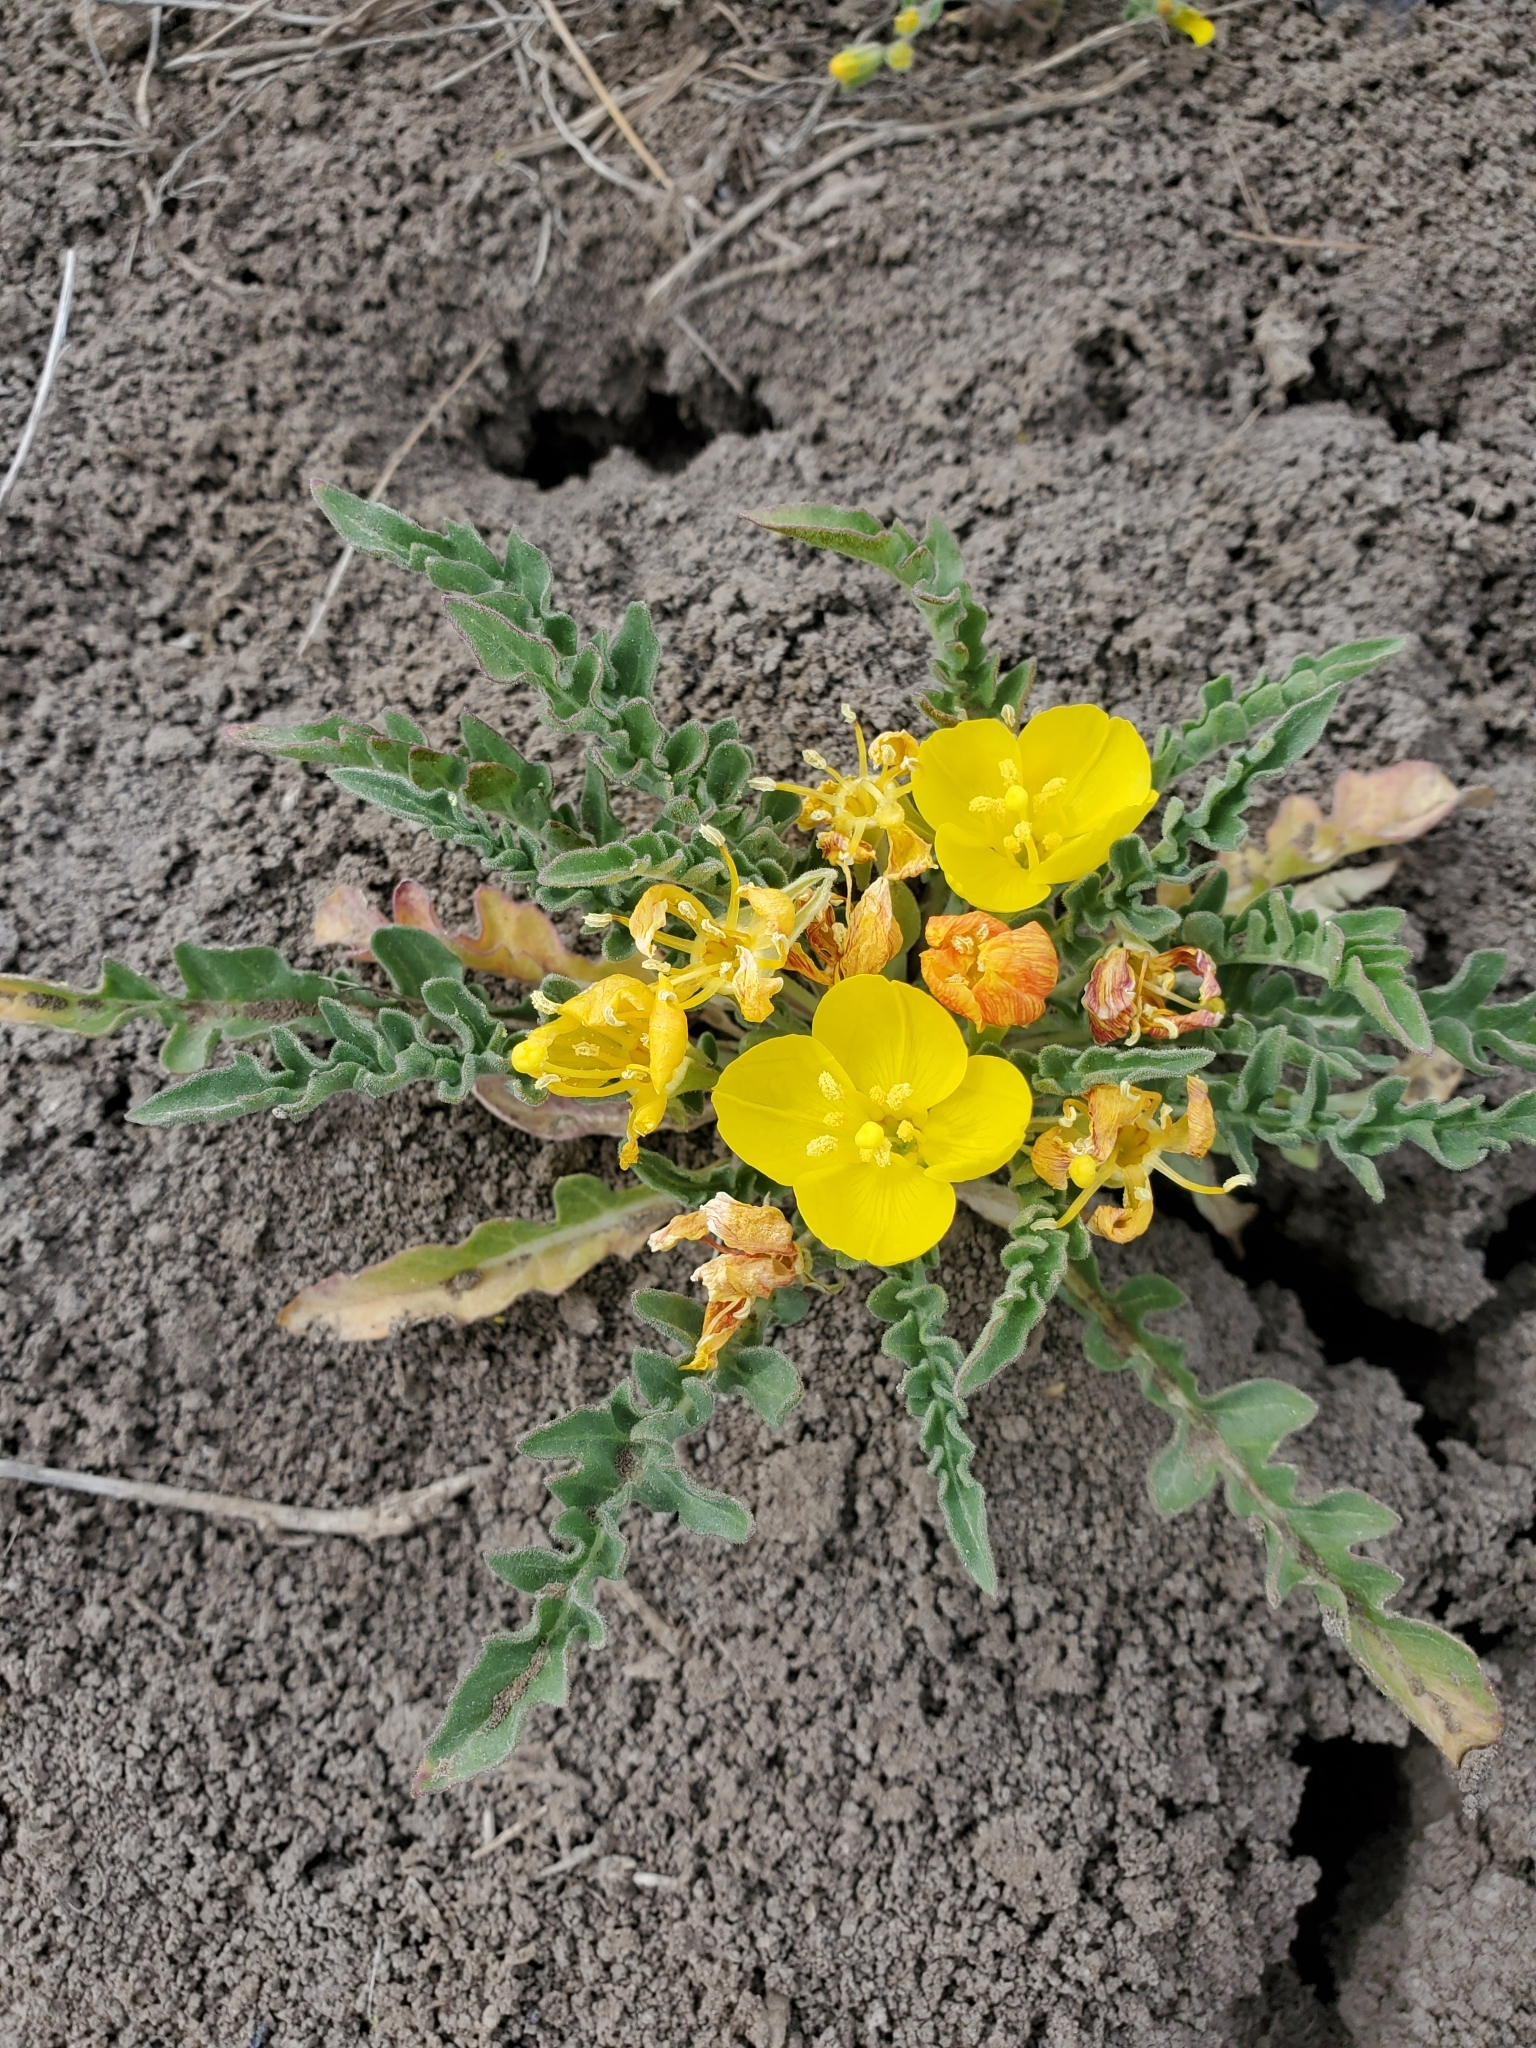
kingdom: Plantae
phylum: Tracheophyta
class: Magnoliopsida
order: Myrtales
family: Onagraceae
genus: Taraxia
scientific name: Taraxia tanacetifolia
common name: Tansyleaf evening primrose
